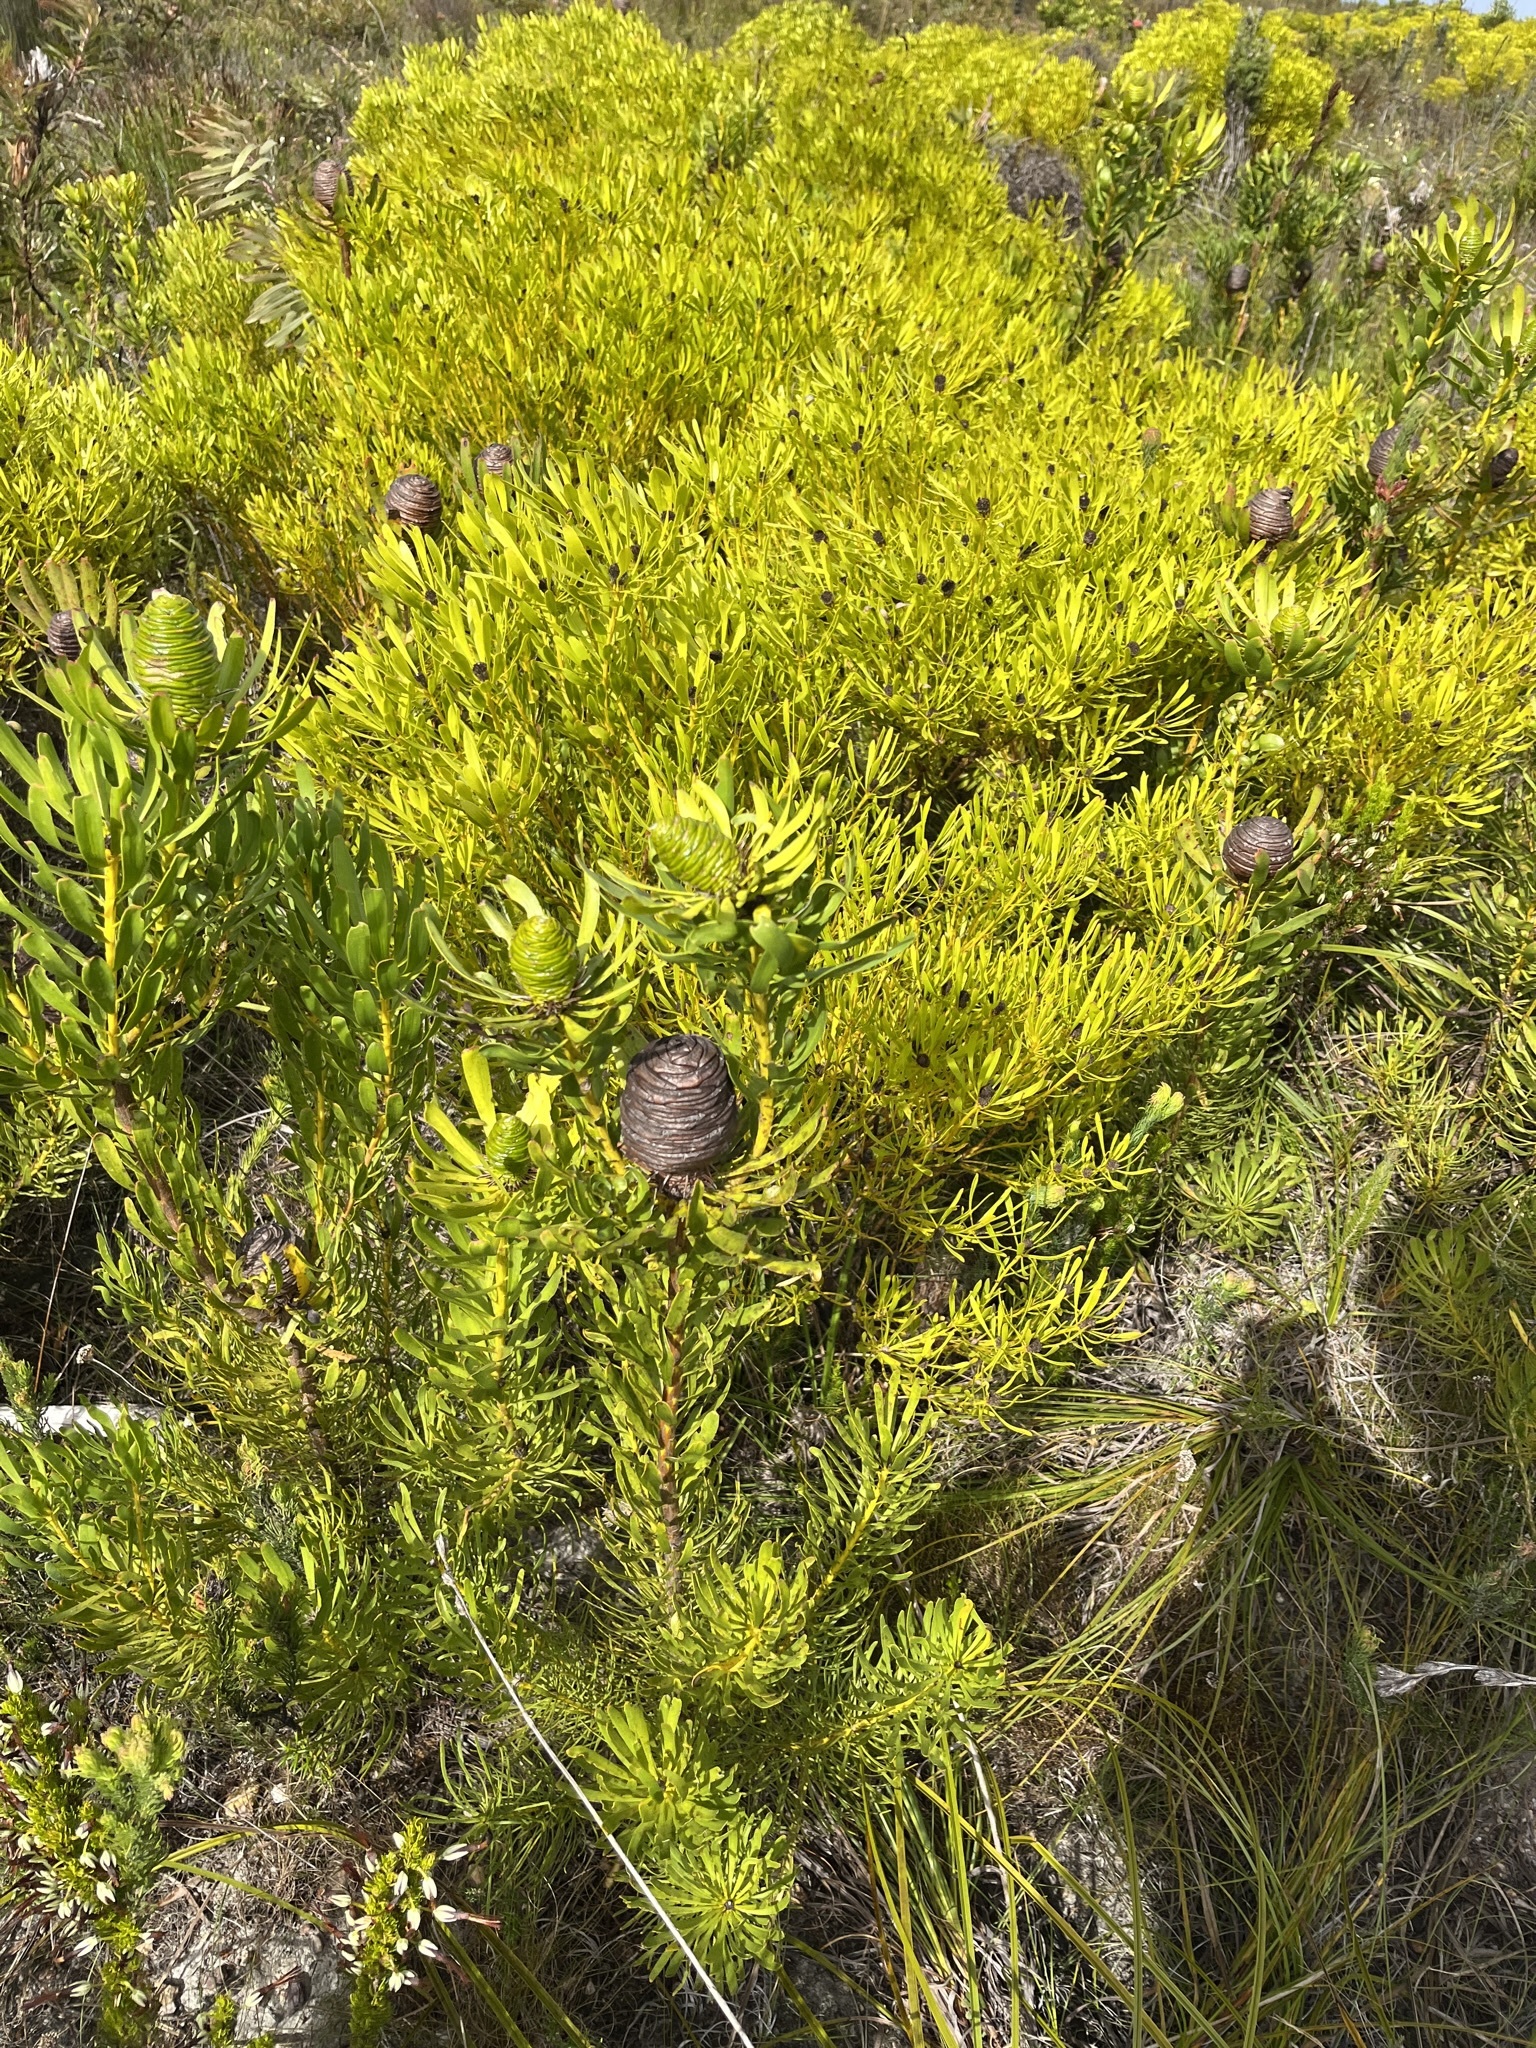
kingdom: Plantae
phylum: Tracheophyta
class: Magnoliopsida
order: Proteales
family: Proteaceae
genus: Leucadendron
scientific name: Leucadendron platyspermum
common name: Plate-seed conebush
